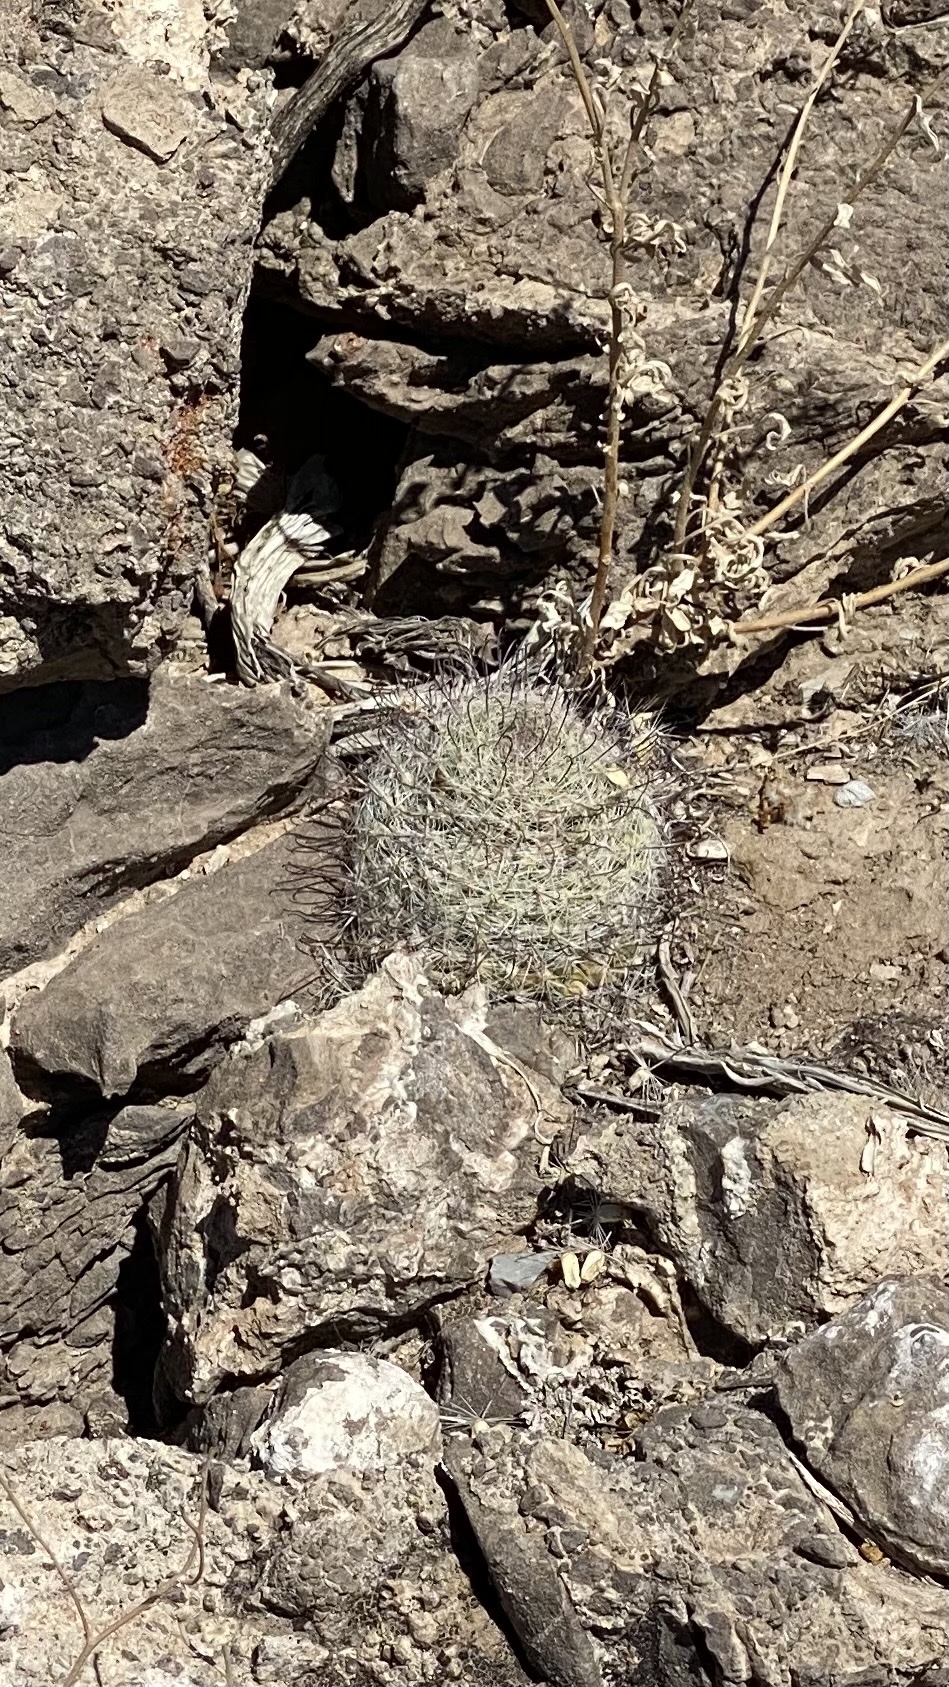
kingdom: Plantae
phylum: Tracheophyta
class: Magnoliopsida
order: Caryophyllales
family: Cactaceae
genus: Cochemiea
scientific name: Cochemiea grahamii
